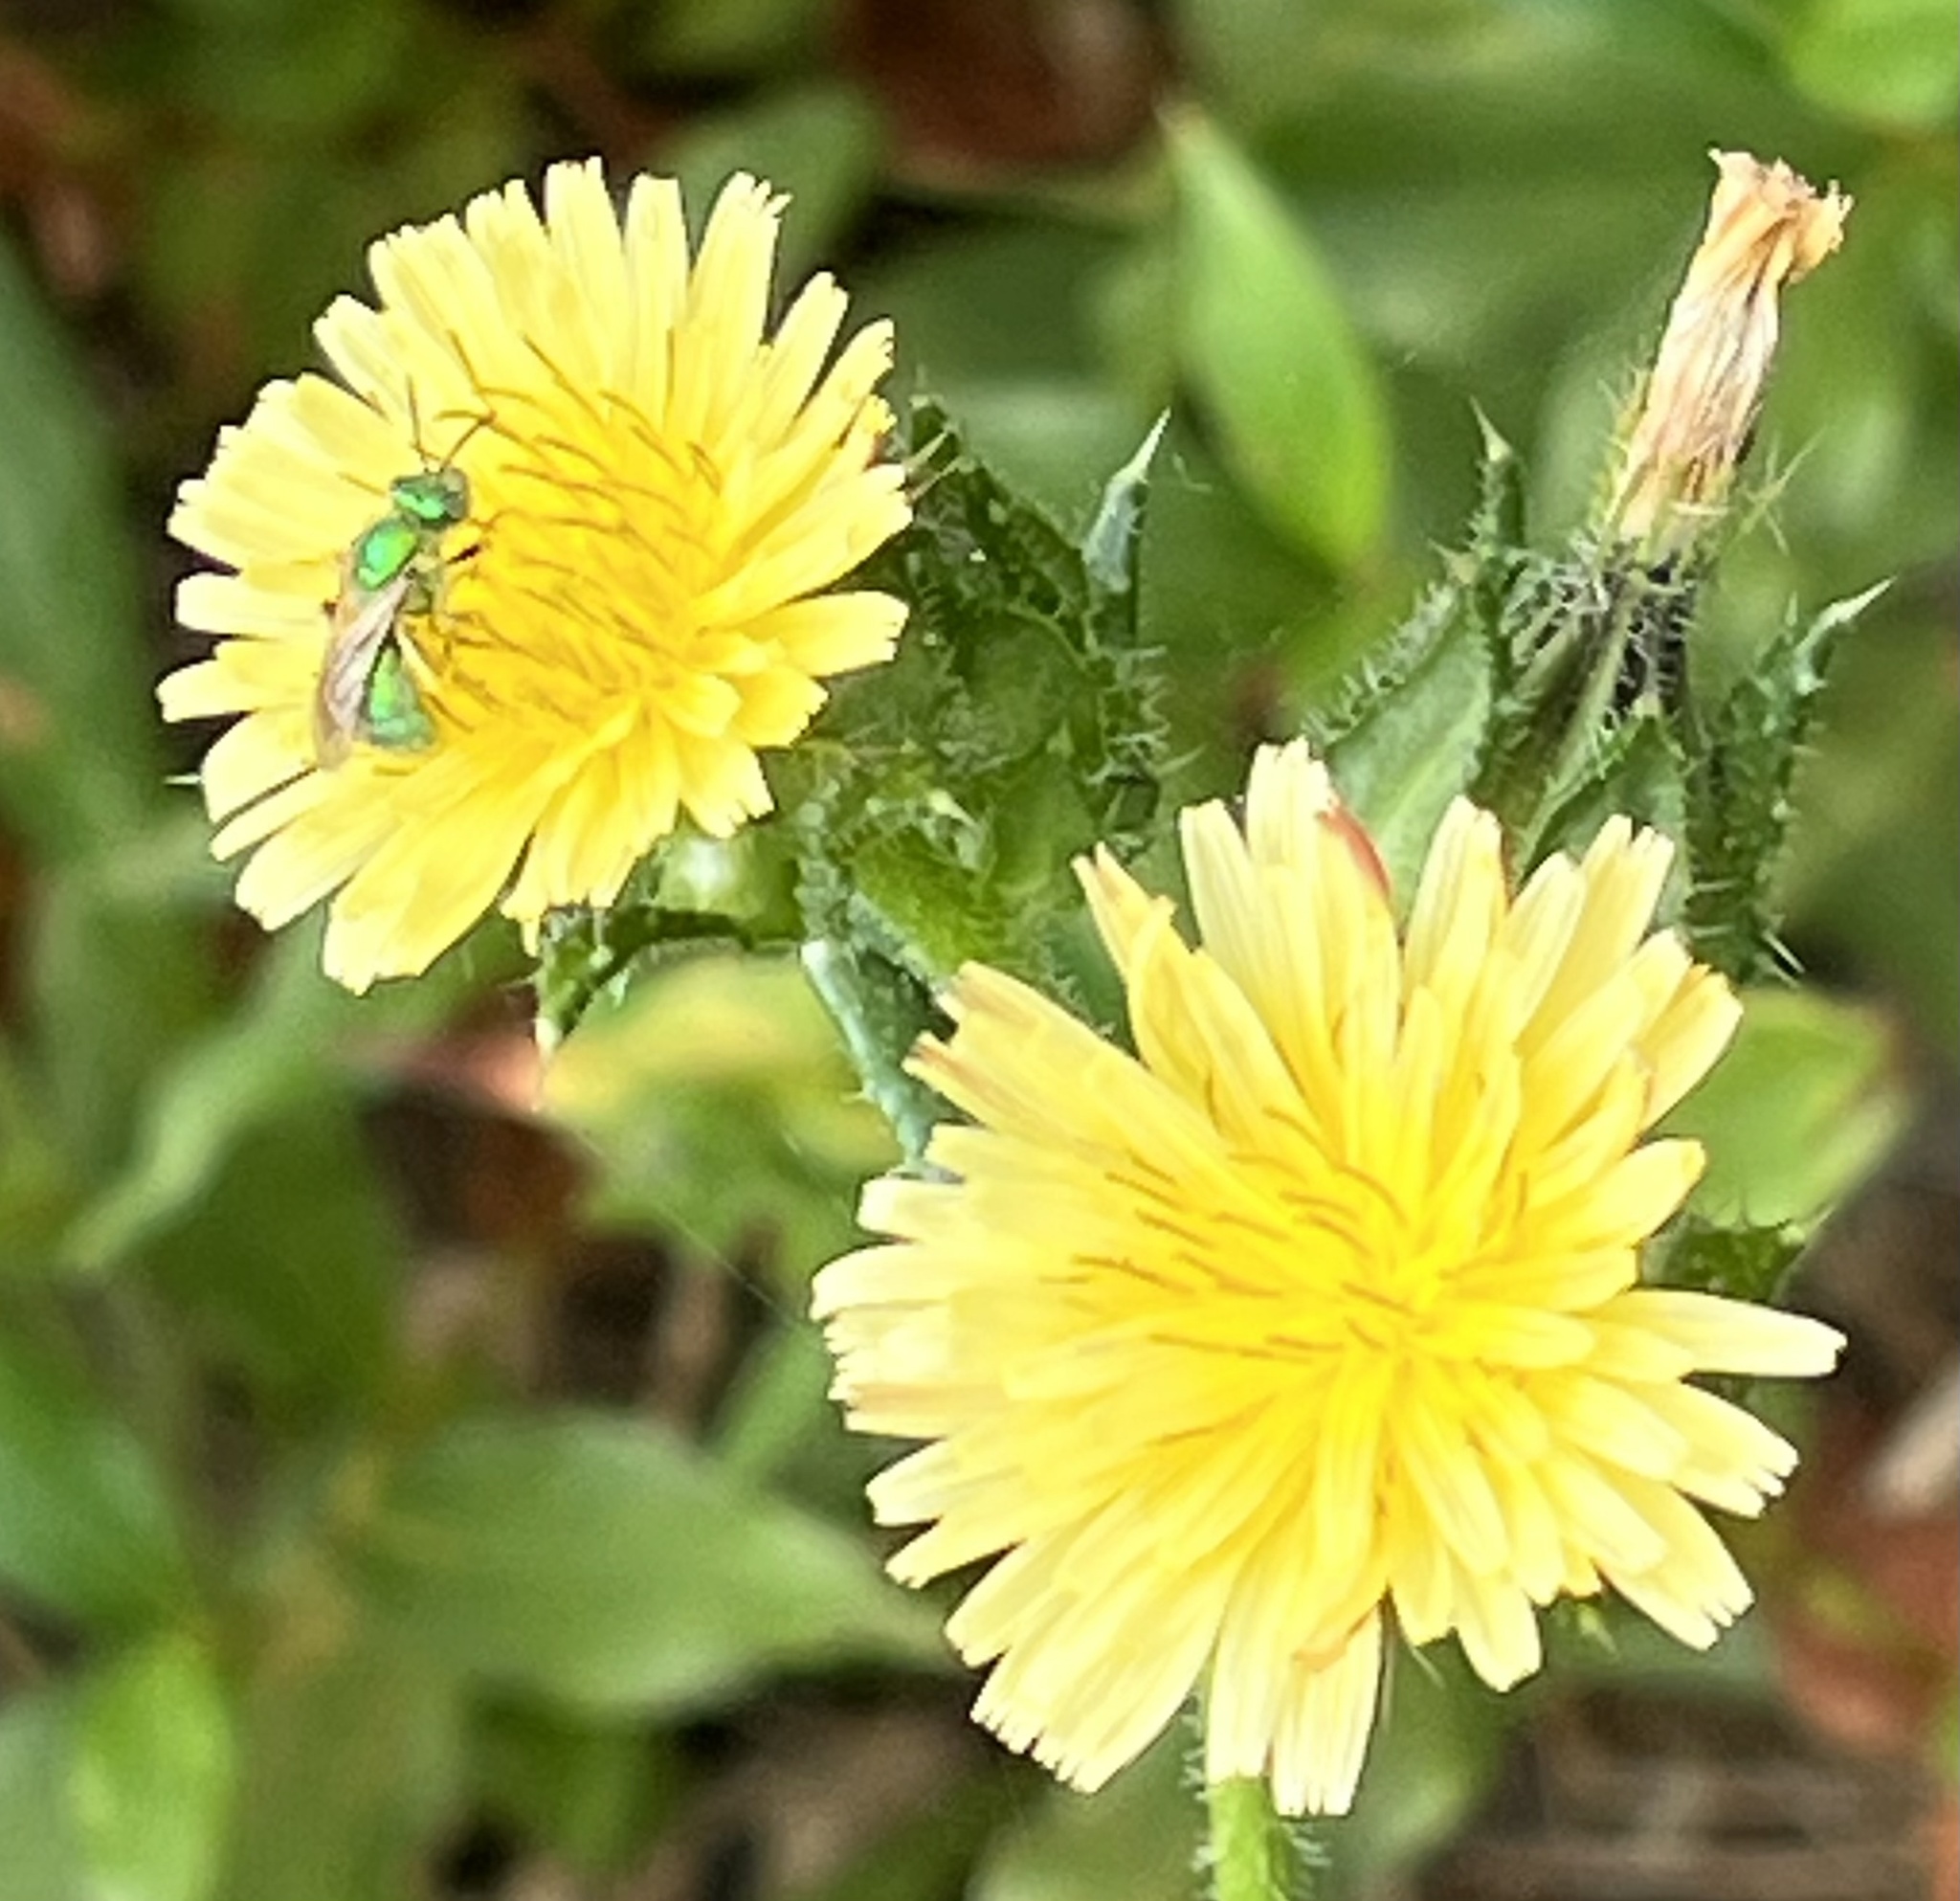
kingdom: Animalia
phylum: Arthropoda
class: Insecta
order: Hymenoptera
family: Halictidae
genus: Agapostemon
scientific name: Agapostemon texanus
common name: Texas striped sweat bee
